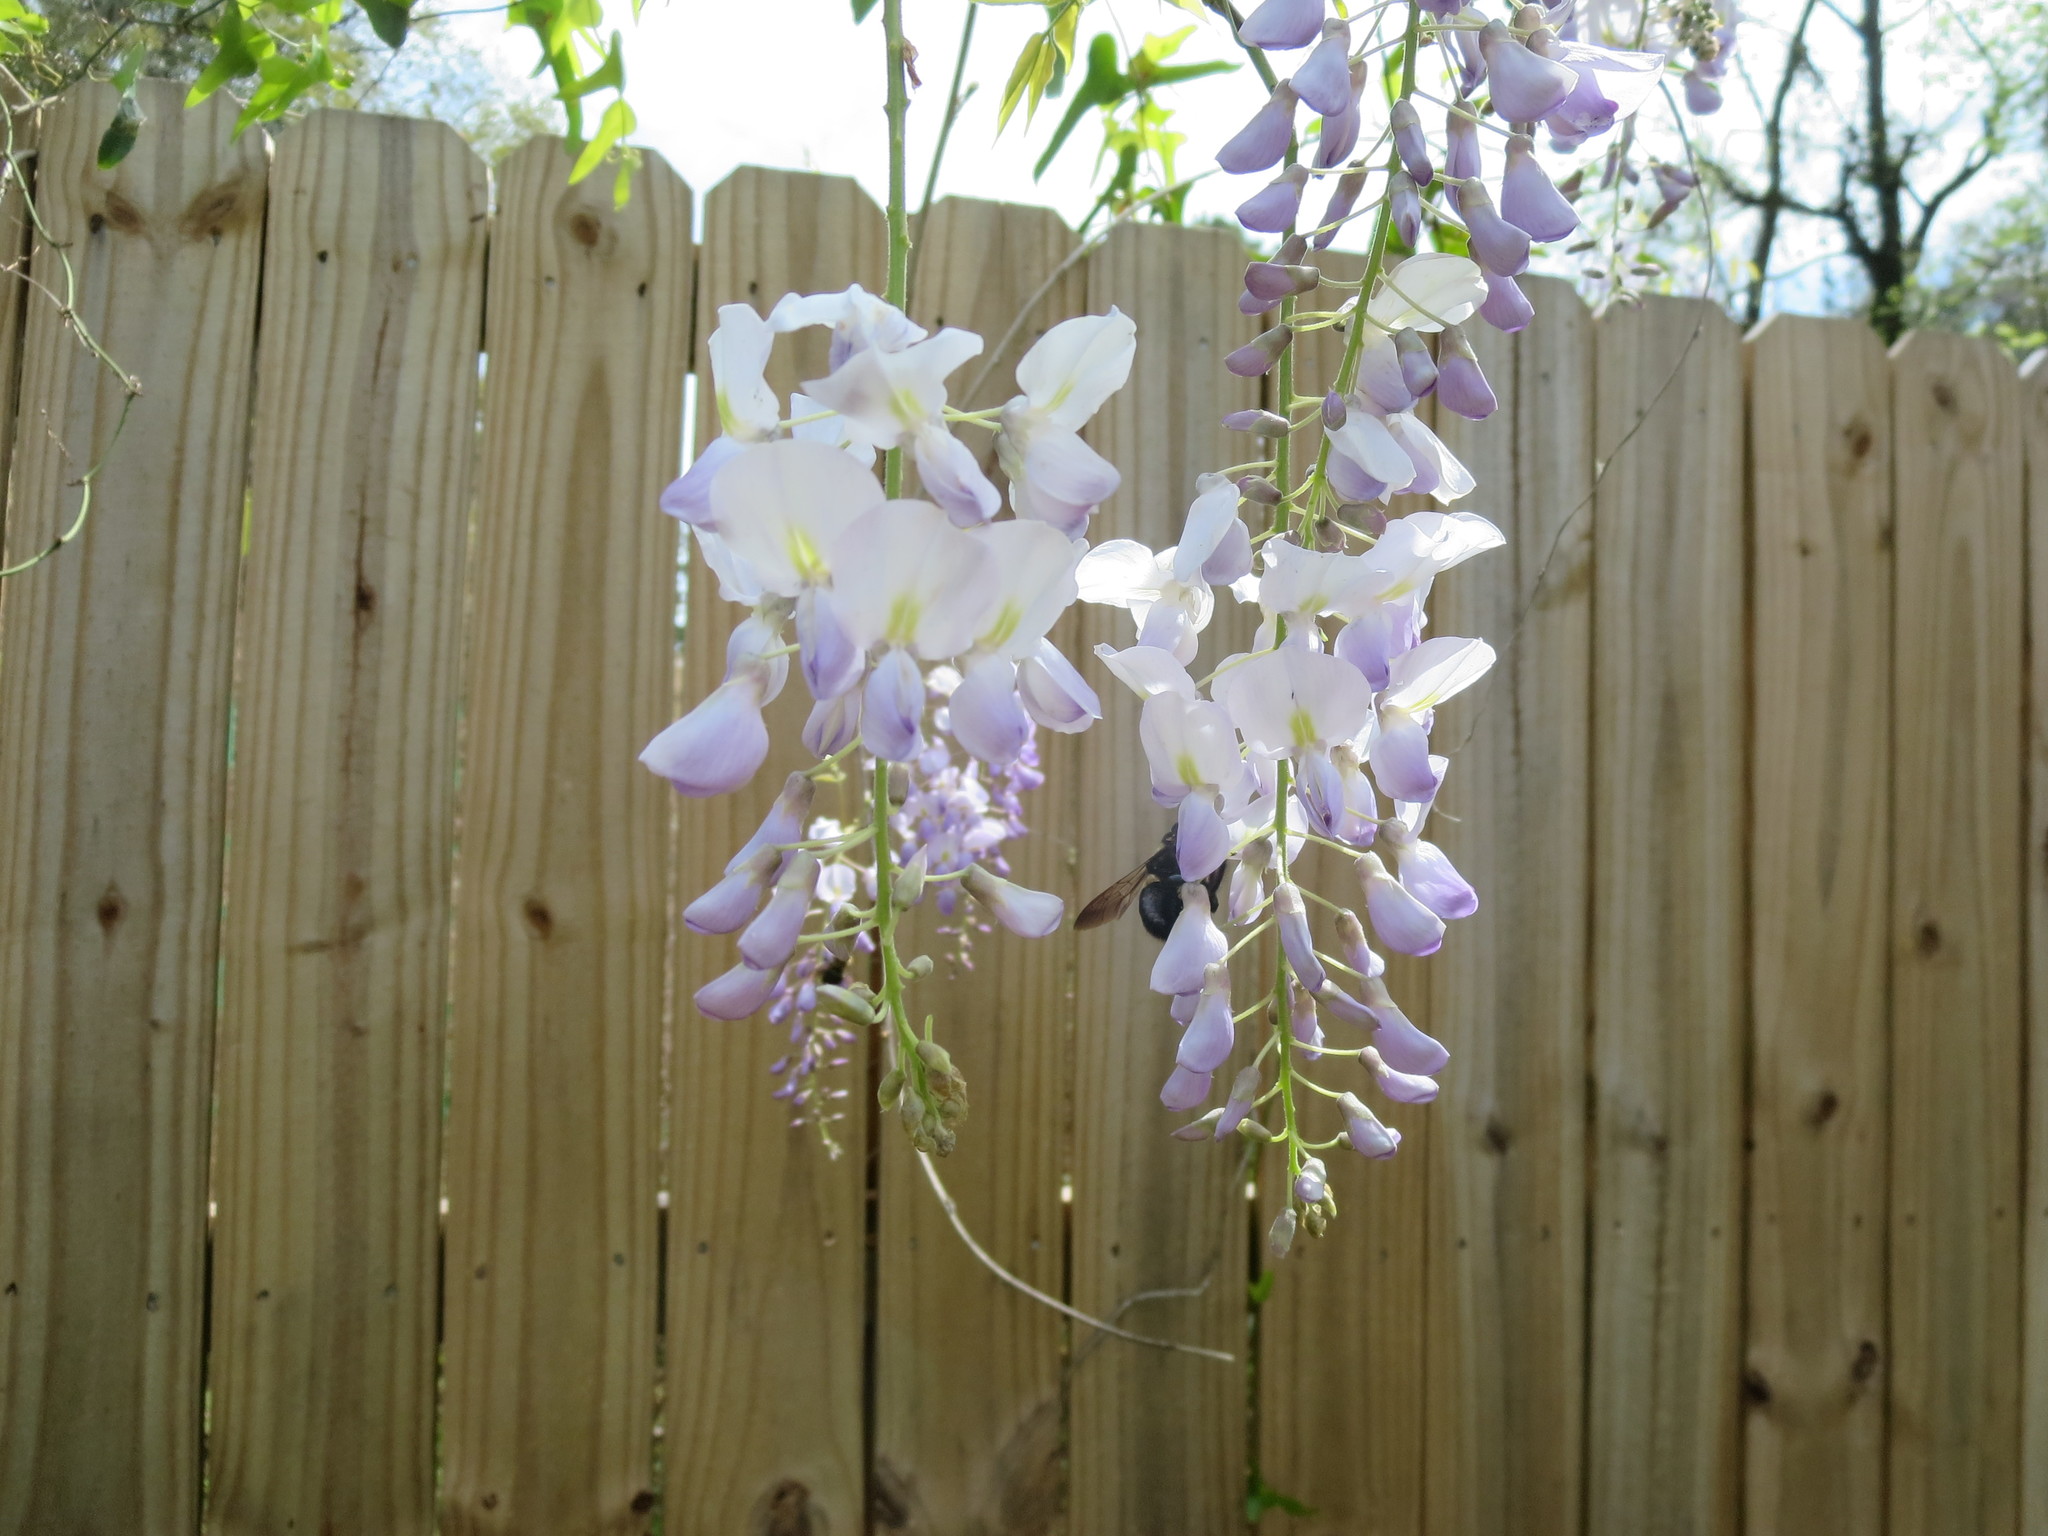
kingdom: Animalia
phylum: Arthropoda
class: Insecta
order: Hymenoptera
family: Apidae
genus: Xylocopa
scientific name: Xylocopa virginica
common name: Carpenter bee
